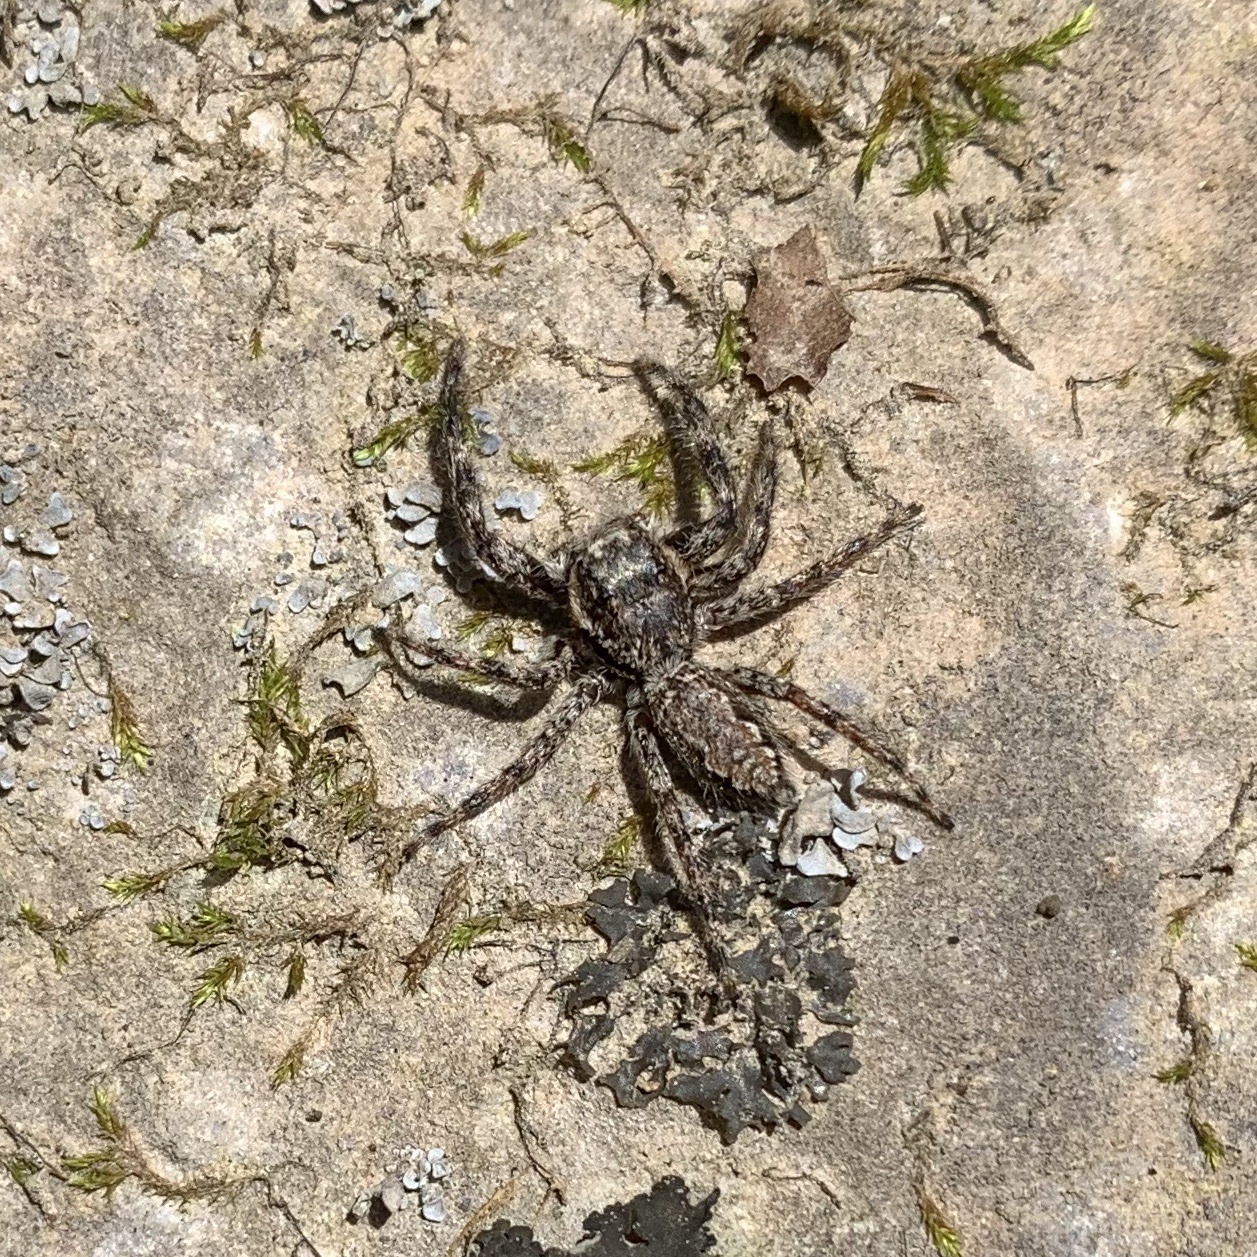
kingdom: Animalia
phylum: Arthropoda
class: Arachnida
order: Araneae
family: Salticidae
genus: Platycryptus
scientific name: Platycryptus undatus
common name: Tan jumping spider
